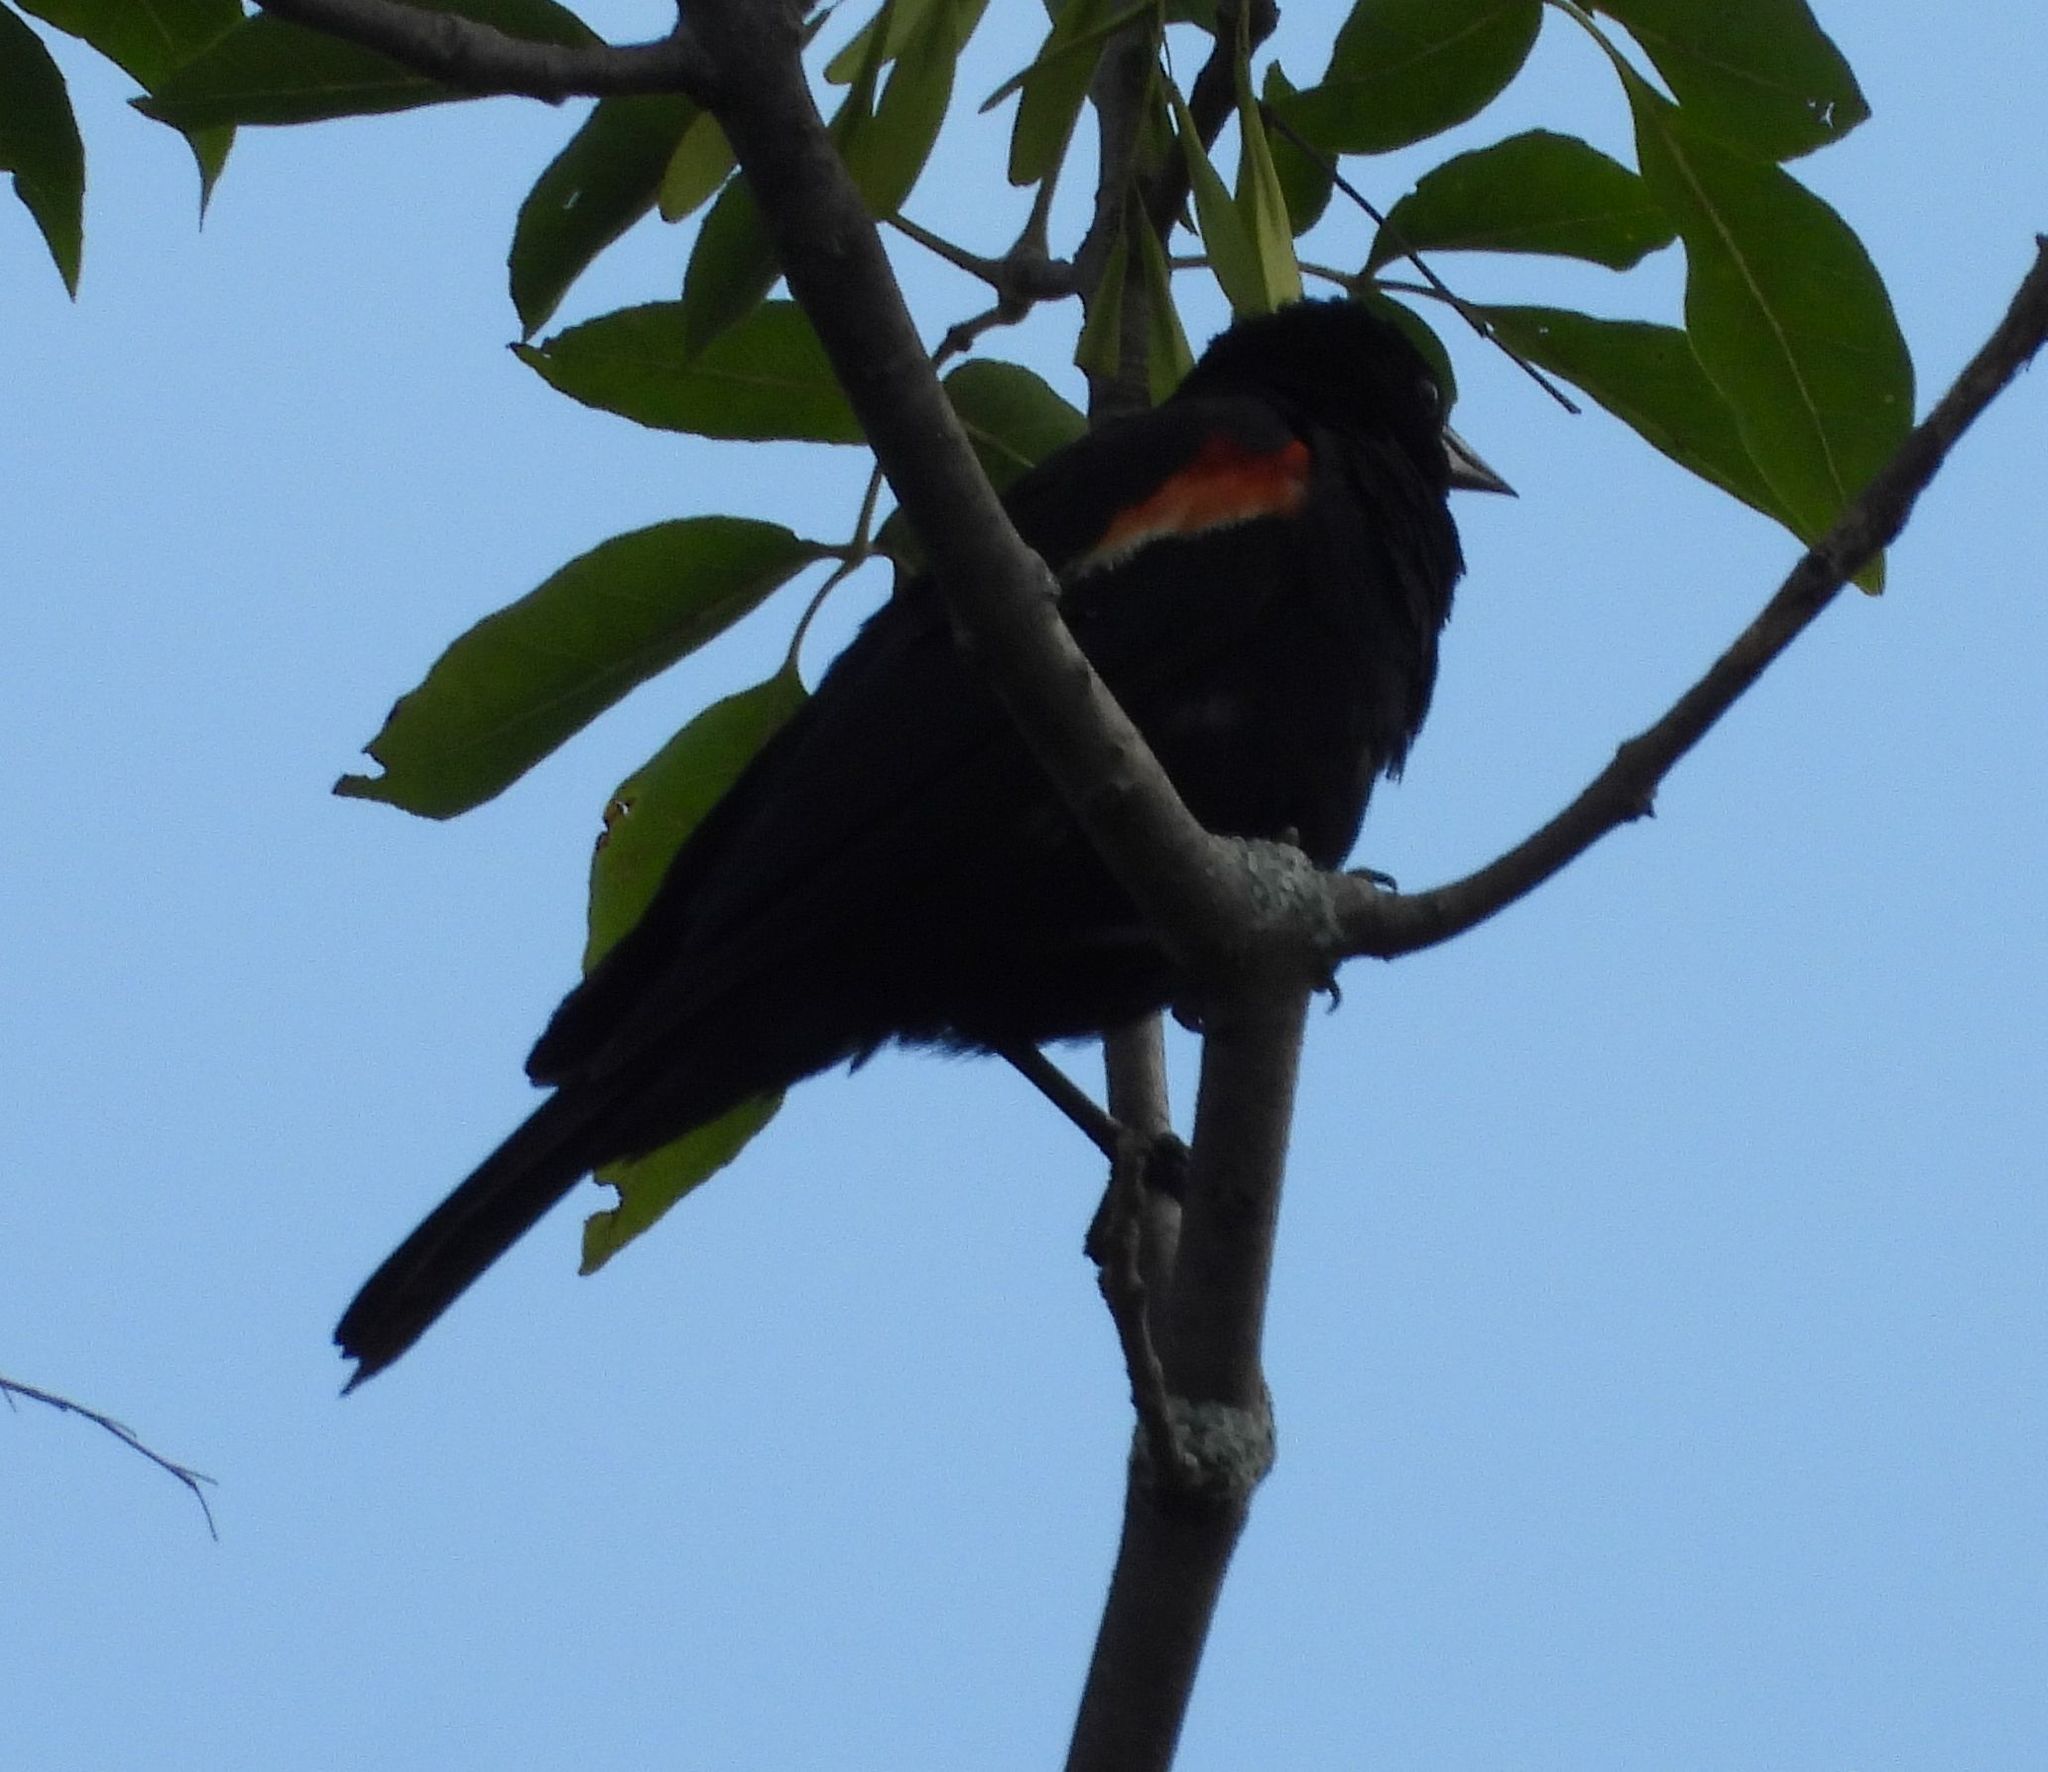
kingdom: Animalia
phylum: Chordata
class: Aves
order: Passeriformes
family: Icteridae
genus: Agelaius
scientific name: Agelaius phoeniceus
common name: Red-winged blackbird
